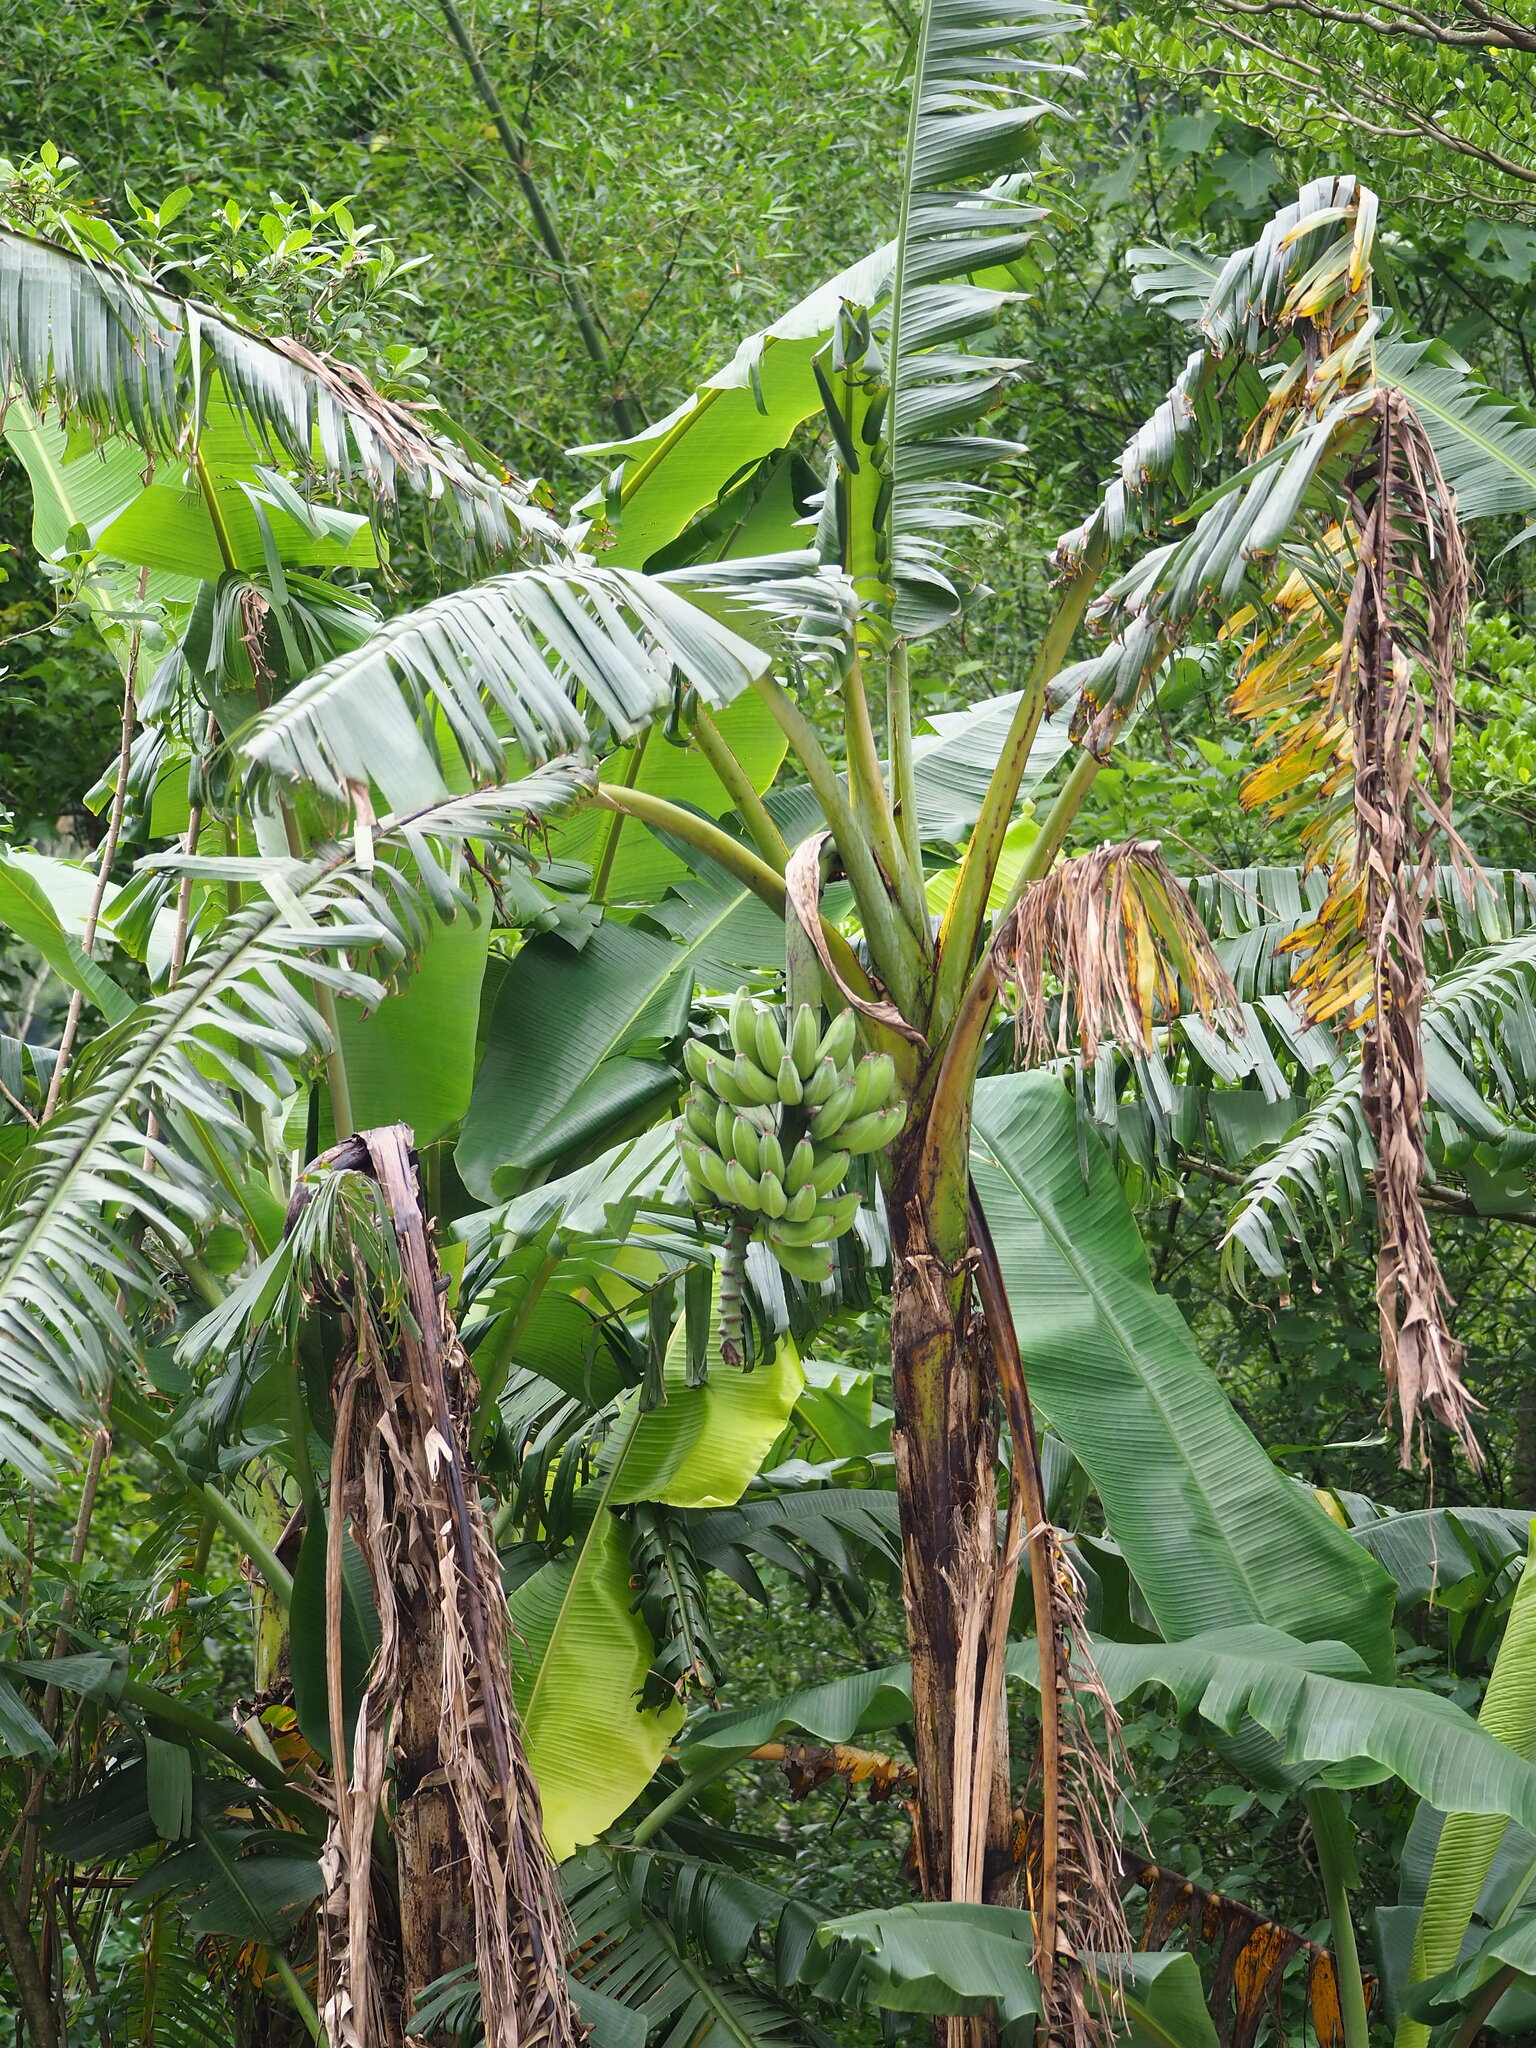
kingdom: Plantae
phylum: Tracheophyta
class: Liliopsida
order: Zingiberales
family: Musaceae
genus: Musa
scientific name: Musa paradisiaca
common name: French plantain
